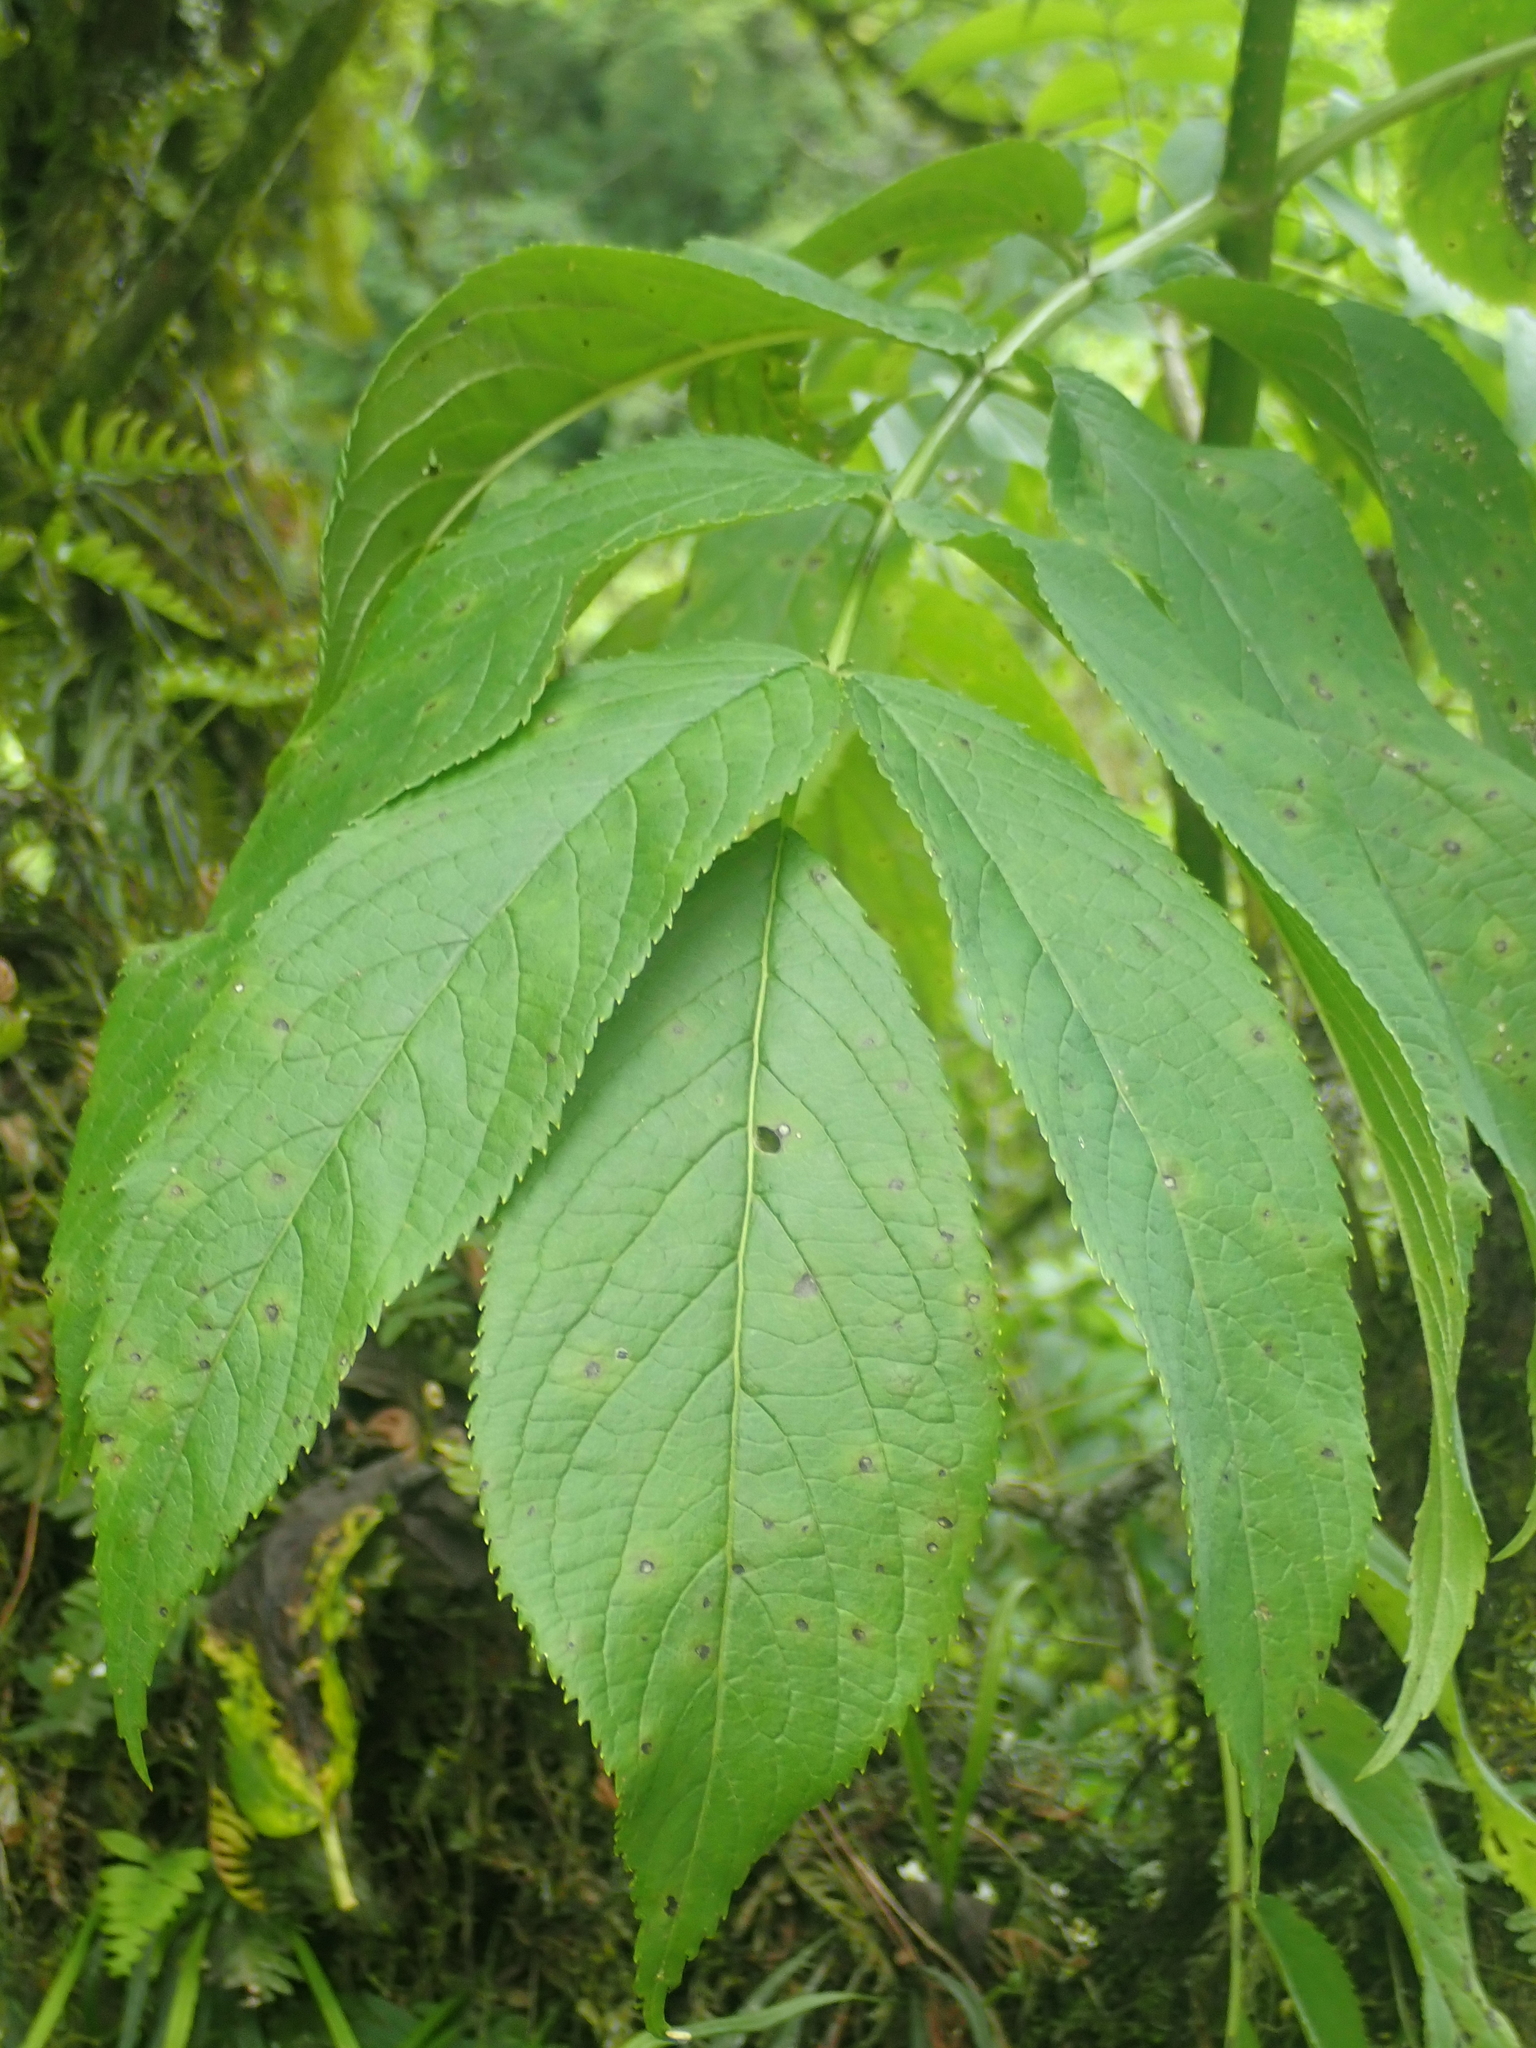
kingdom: Plantae
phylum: Tracheophyta
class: Magnoliopsida
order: Dipsacales
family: Viburnaceae
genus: Sambucus
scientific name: Sambucus peruviana
